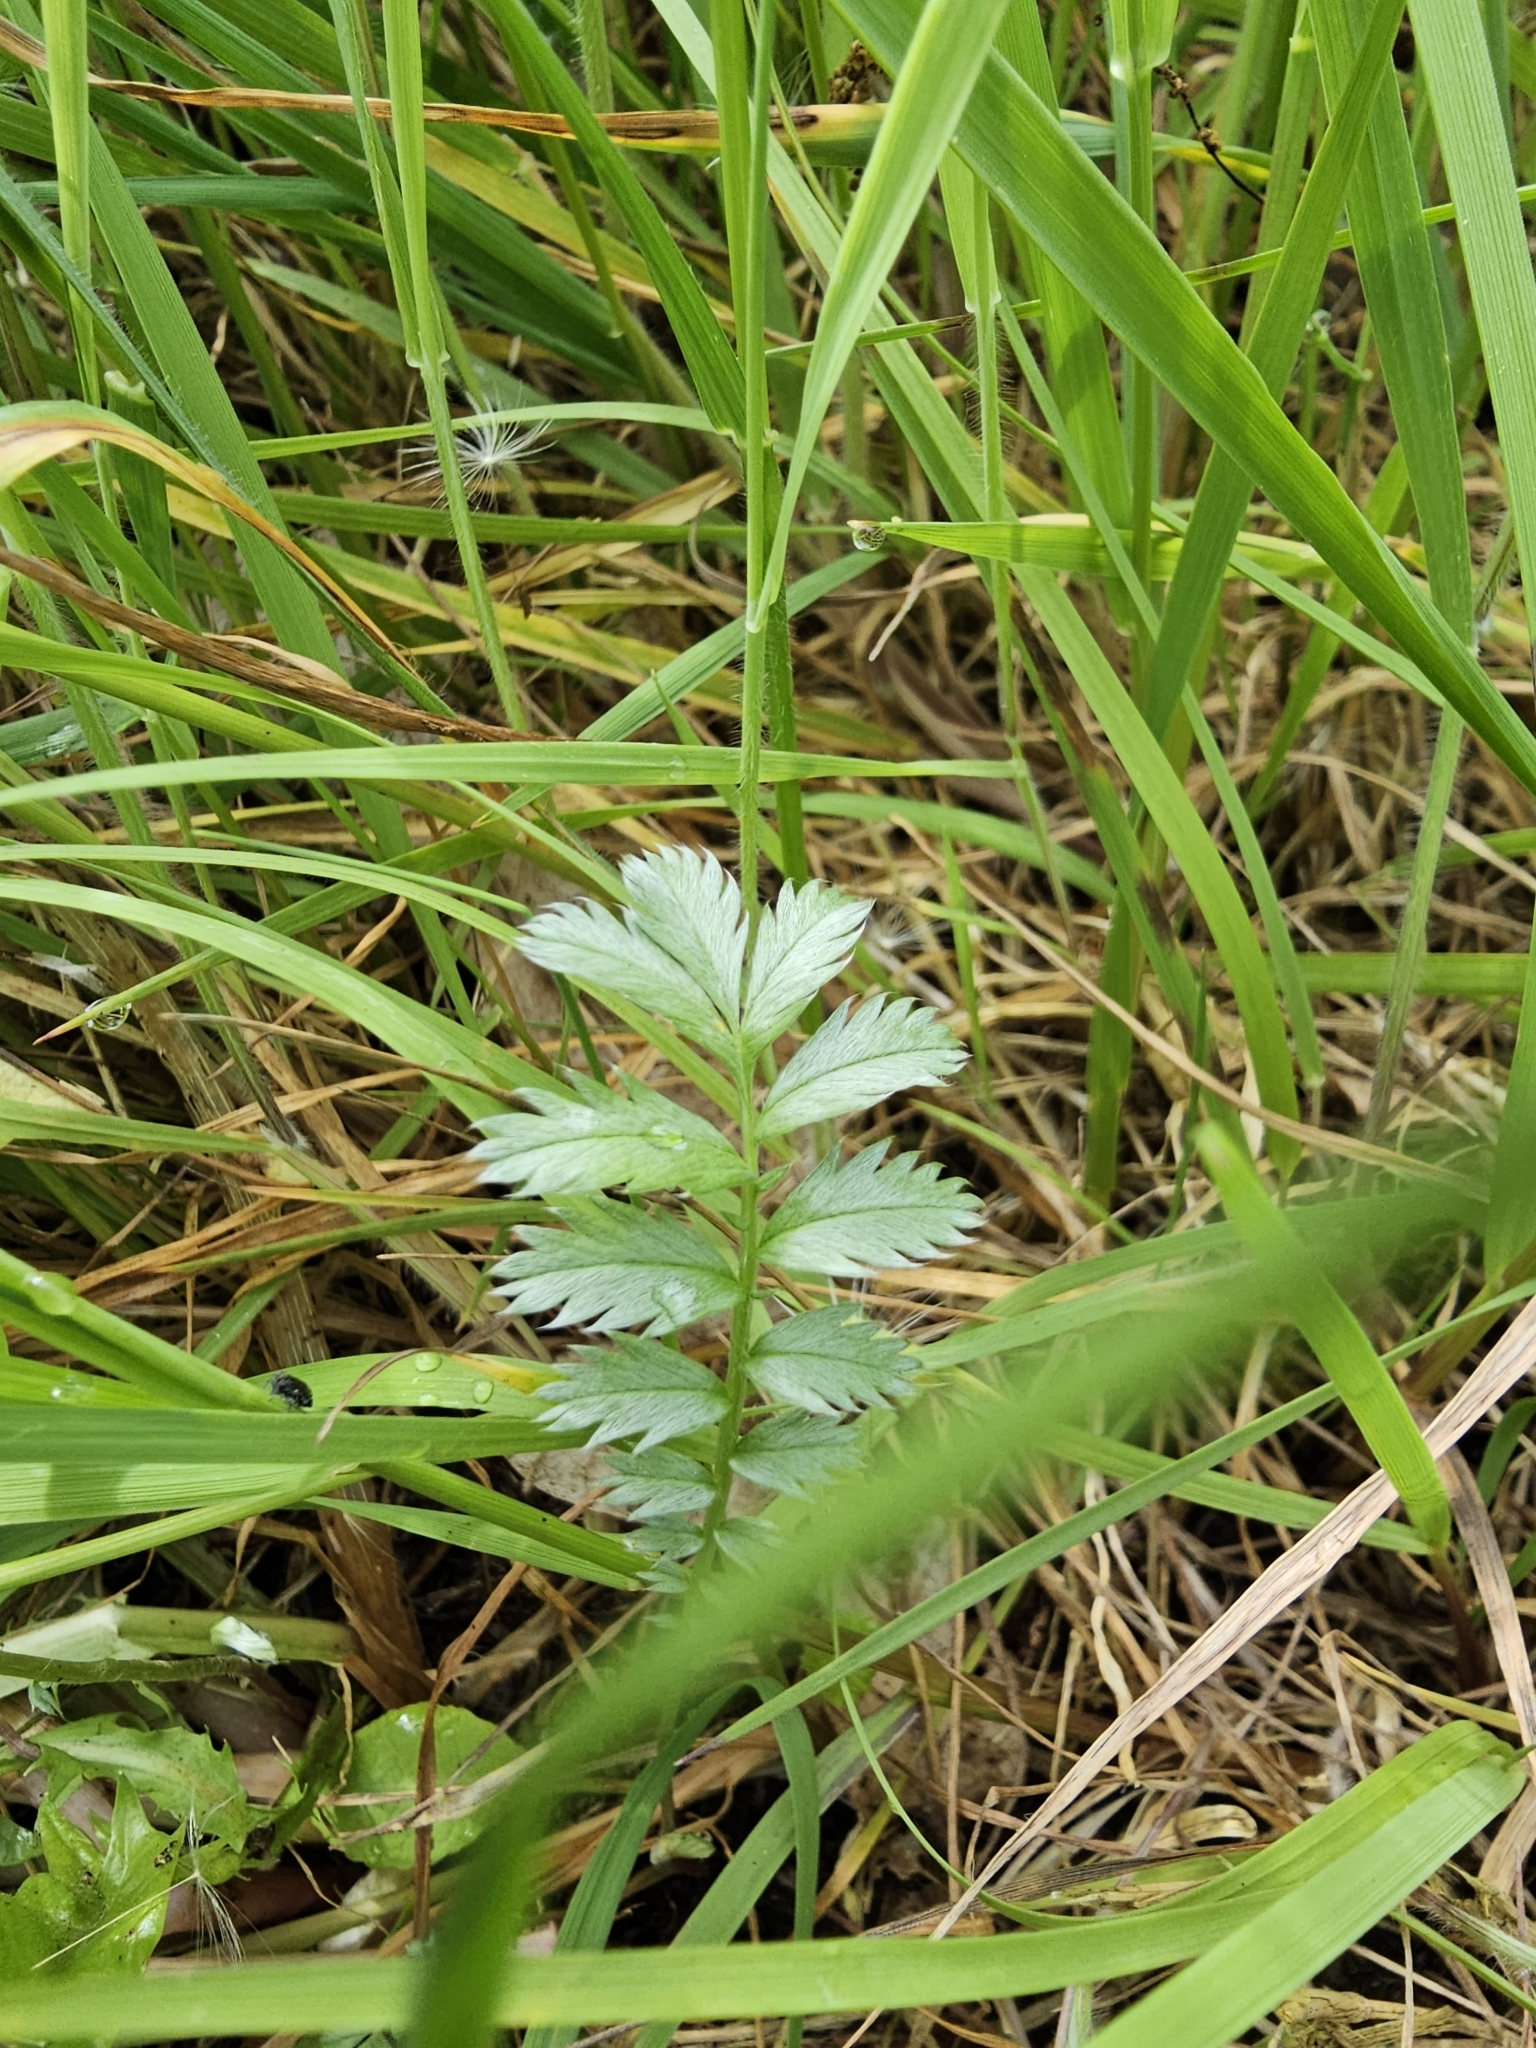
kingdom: Plantae
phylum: Tracheophyta
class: Magnoliopsida
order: Rosales
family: Rosaceae
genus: Argentina
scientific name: Argentina anserina
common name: Common silverweed
